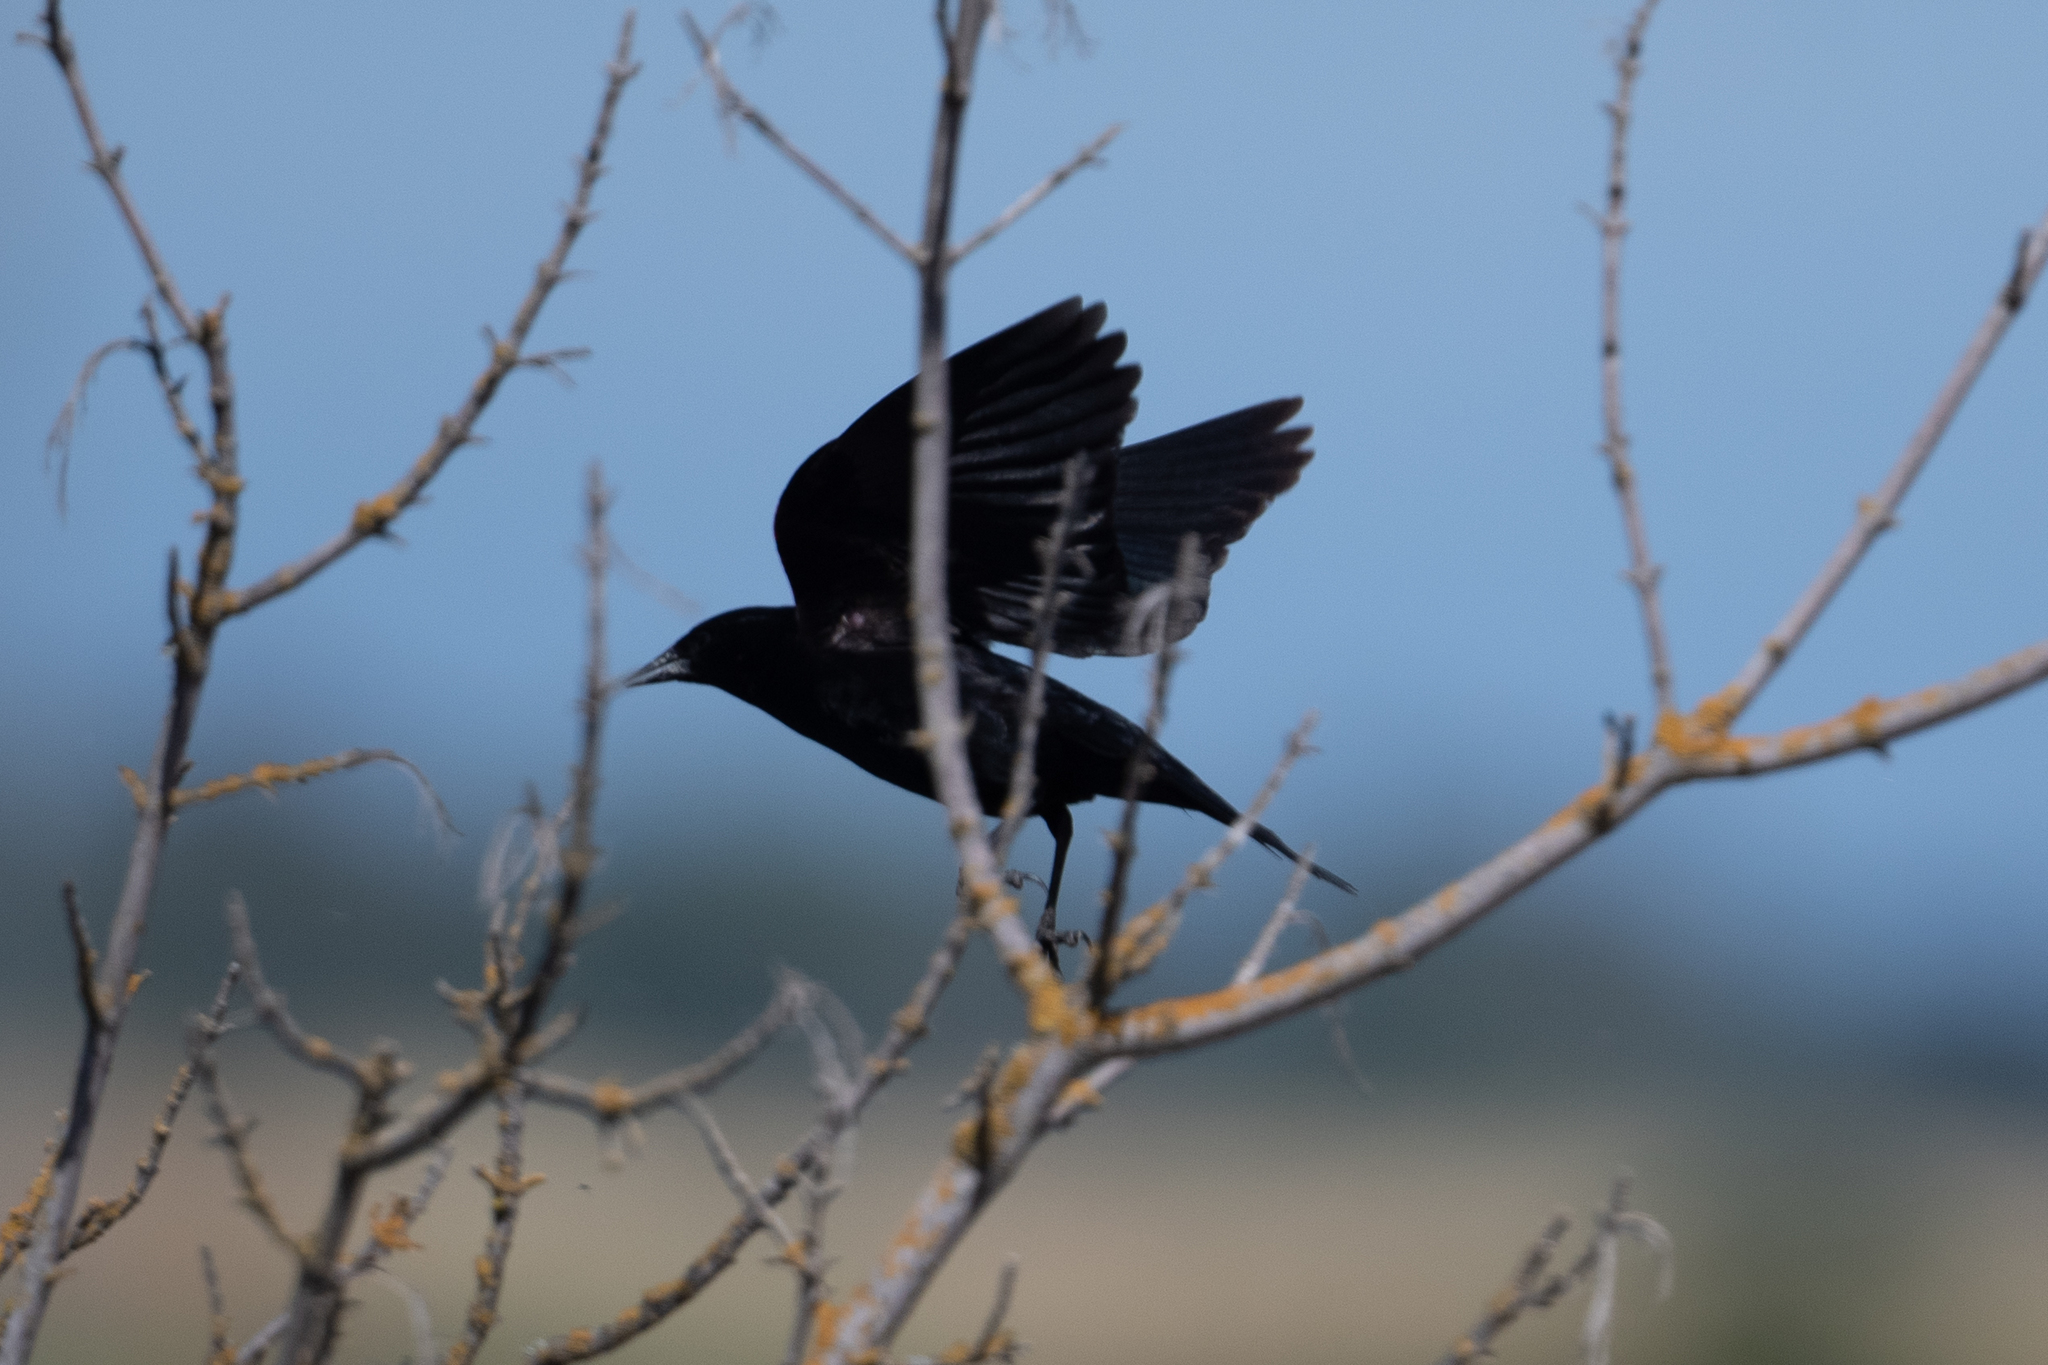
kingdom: Animalia
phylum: Chordata
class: Aves
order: Passeriformes
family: Icteridae
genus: Agelaius
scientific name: Agelaius phoeniceus
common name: Red-winged blackbird
